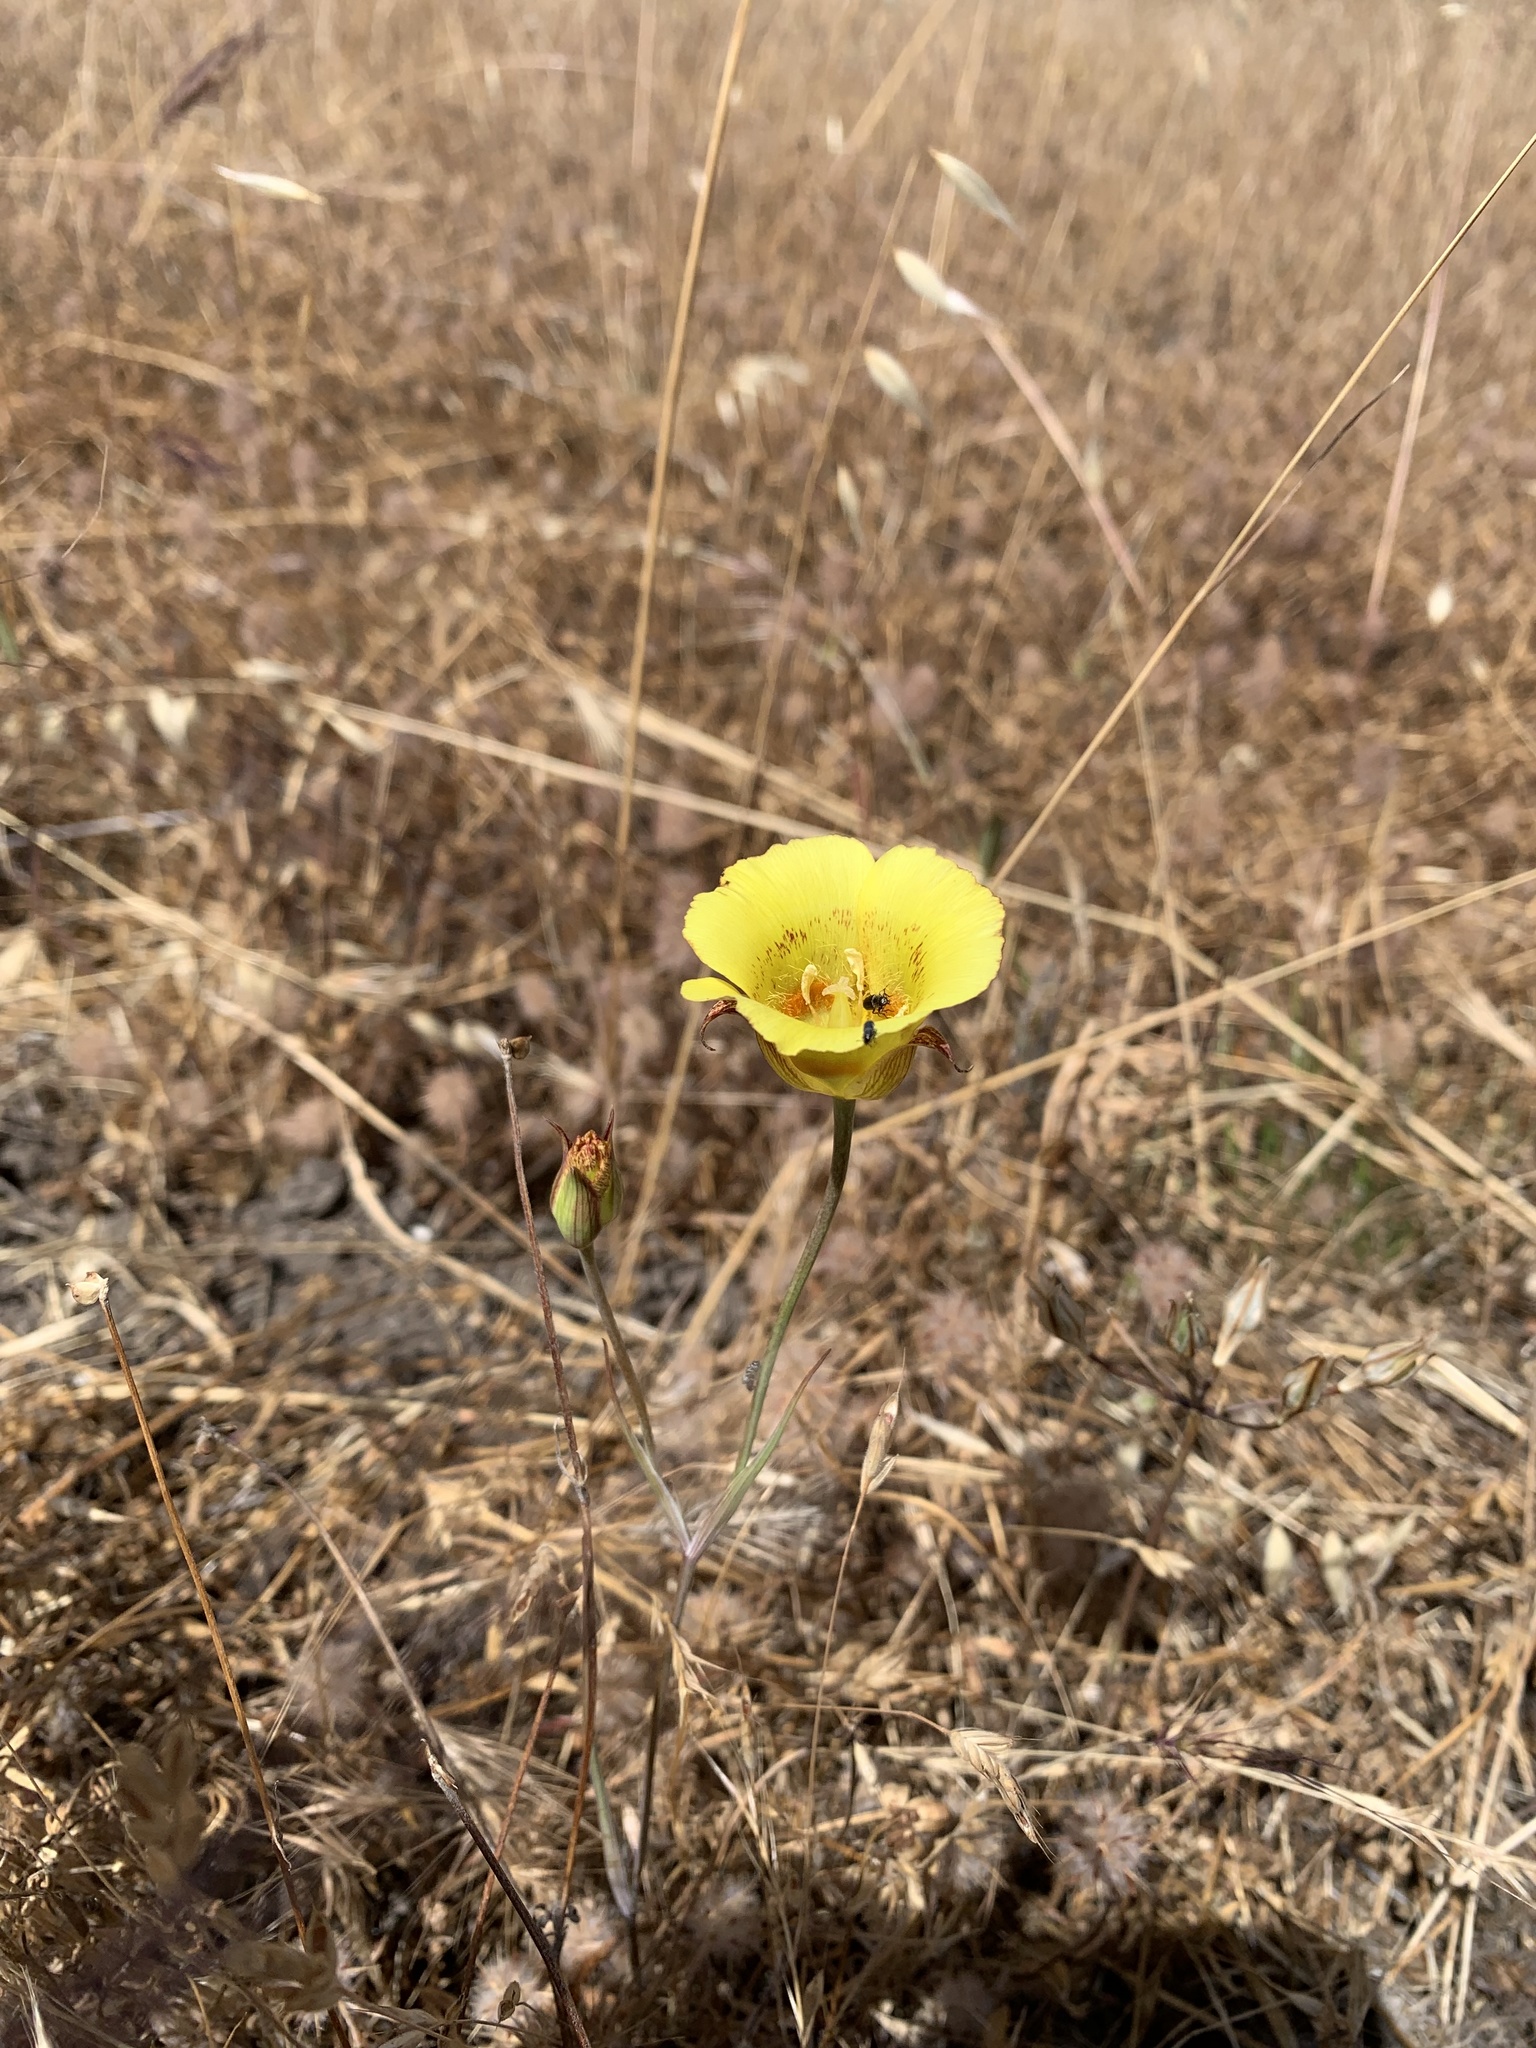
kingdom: Plantae
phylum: Tracheophyta
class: Liliopsida
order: Liliales
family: Liliaceae
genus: Calochortus
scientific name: Calochortus luteus
